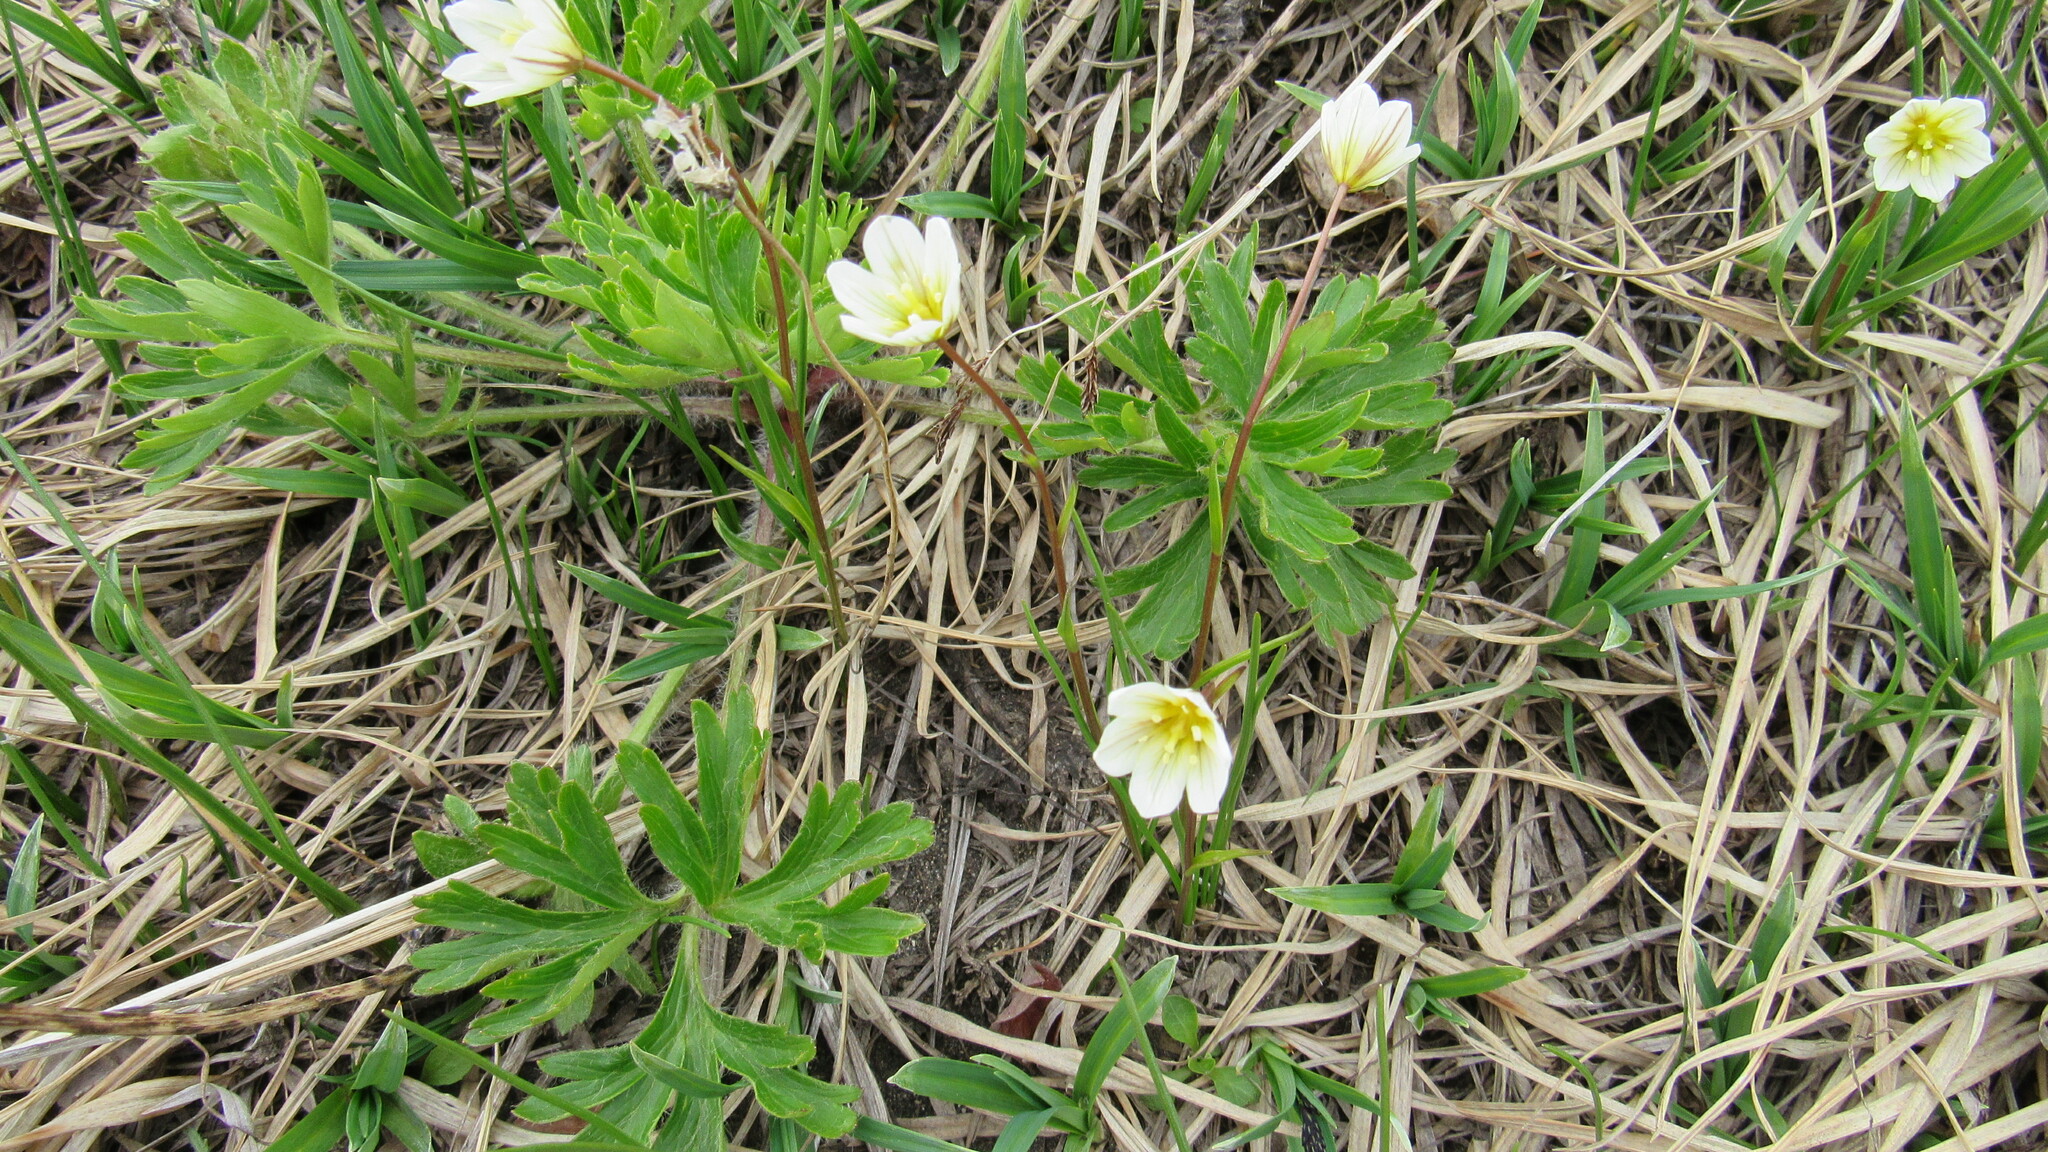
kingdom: Plantae
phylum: Tracheophyta
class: Liliopsida
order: Liliales
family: Liliaceae
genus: Gagea
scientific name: Gagea serotina
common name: Snowdon lily
